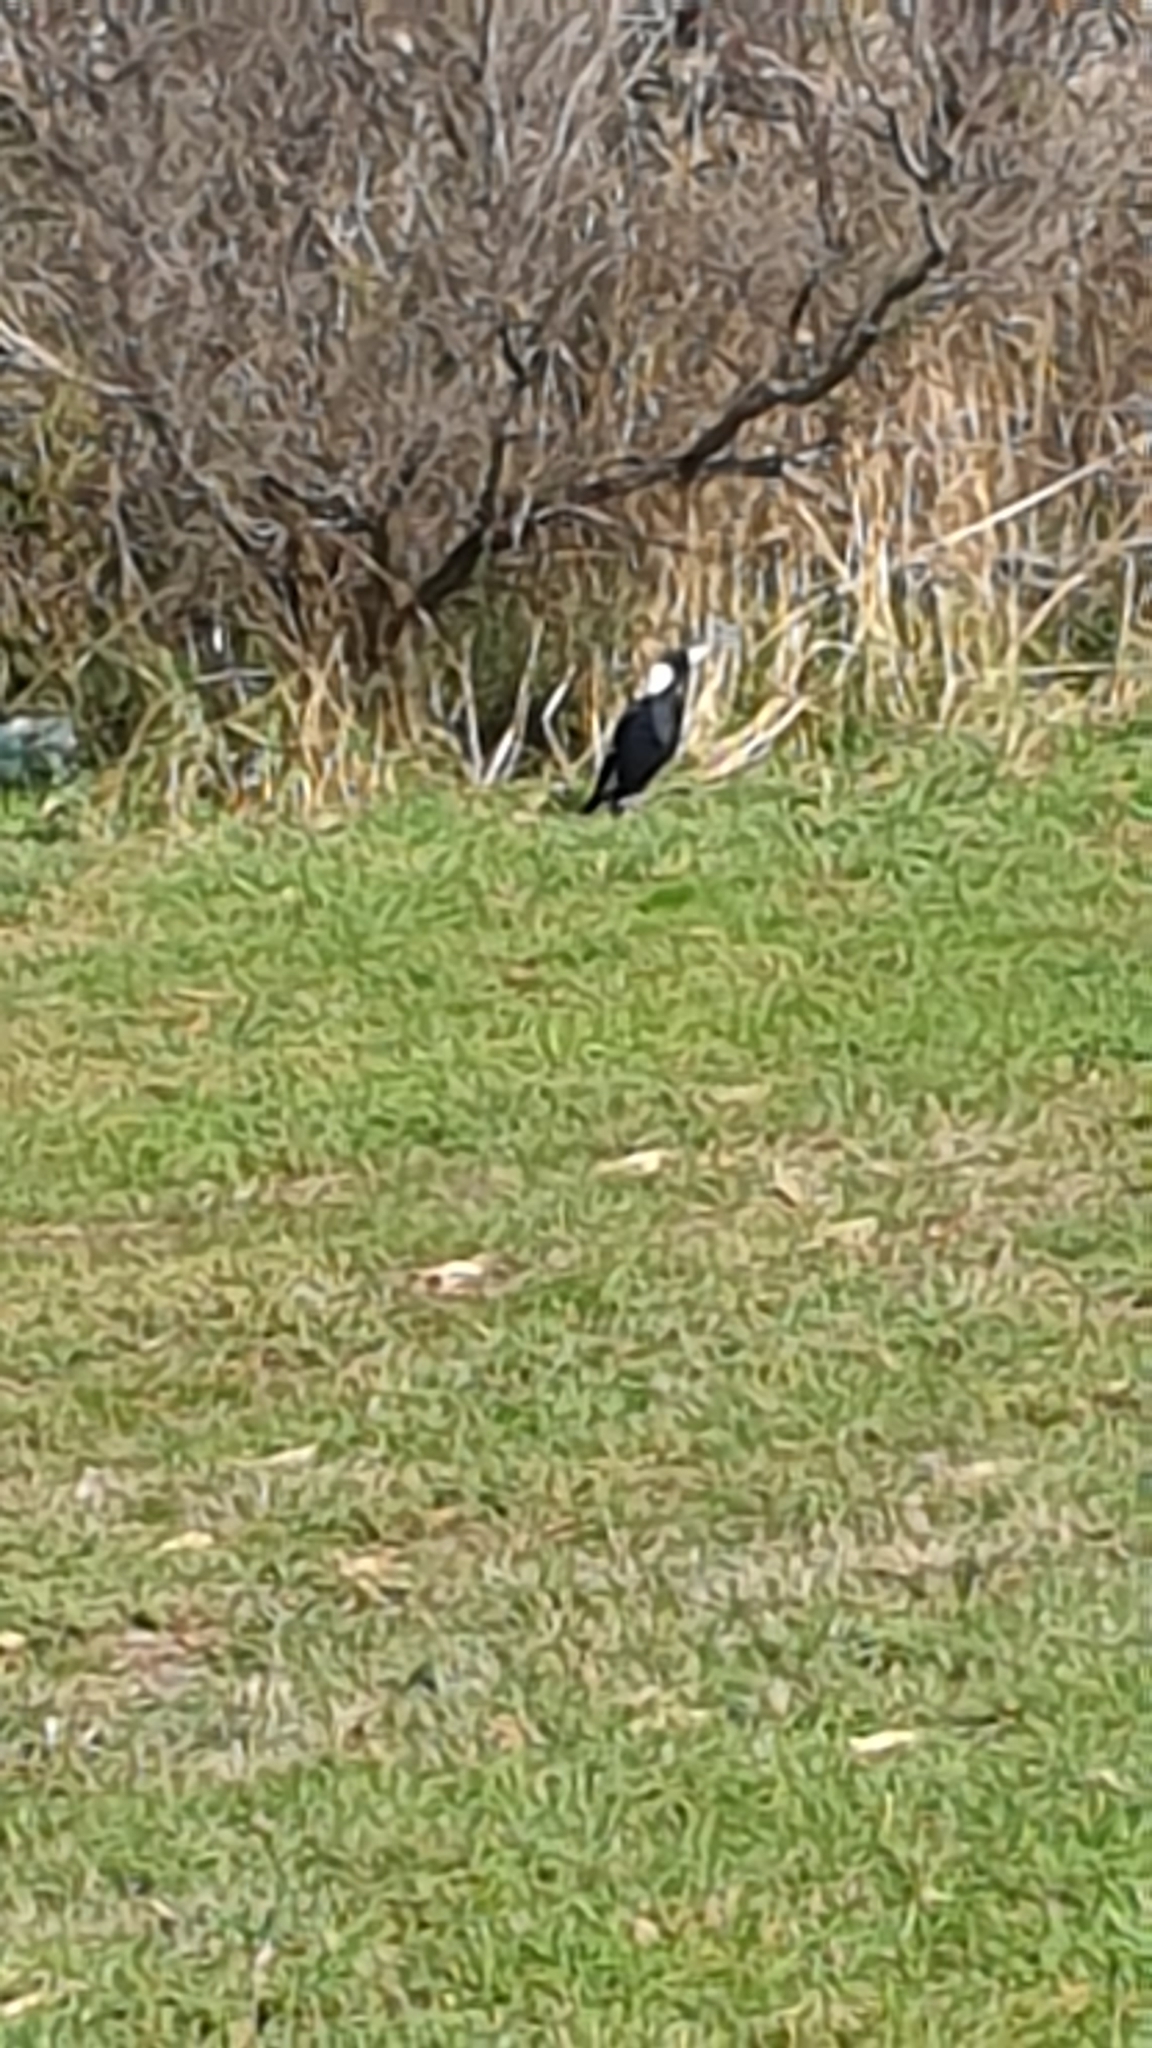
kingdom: Animalia
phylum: Chordata
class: Aves
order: Passeriformes
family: Cracticidae
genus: Gymnorhina
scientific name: Gymnorhina tibicen
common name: Australian magpie
